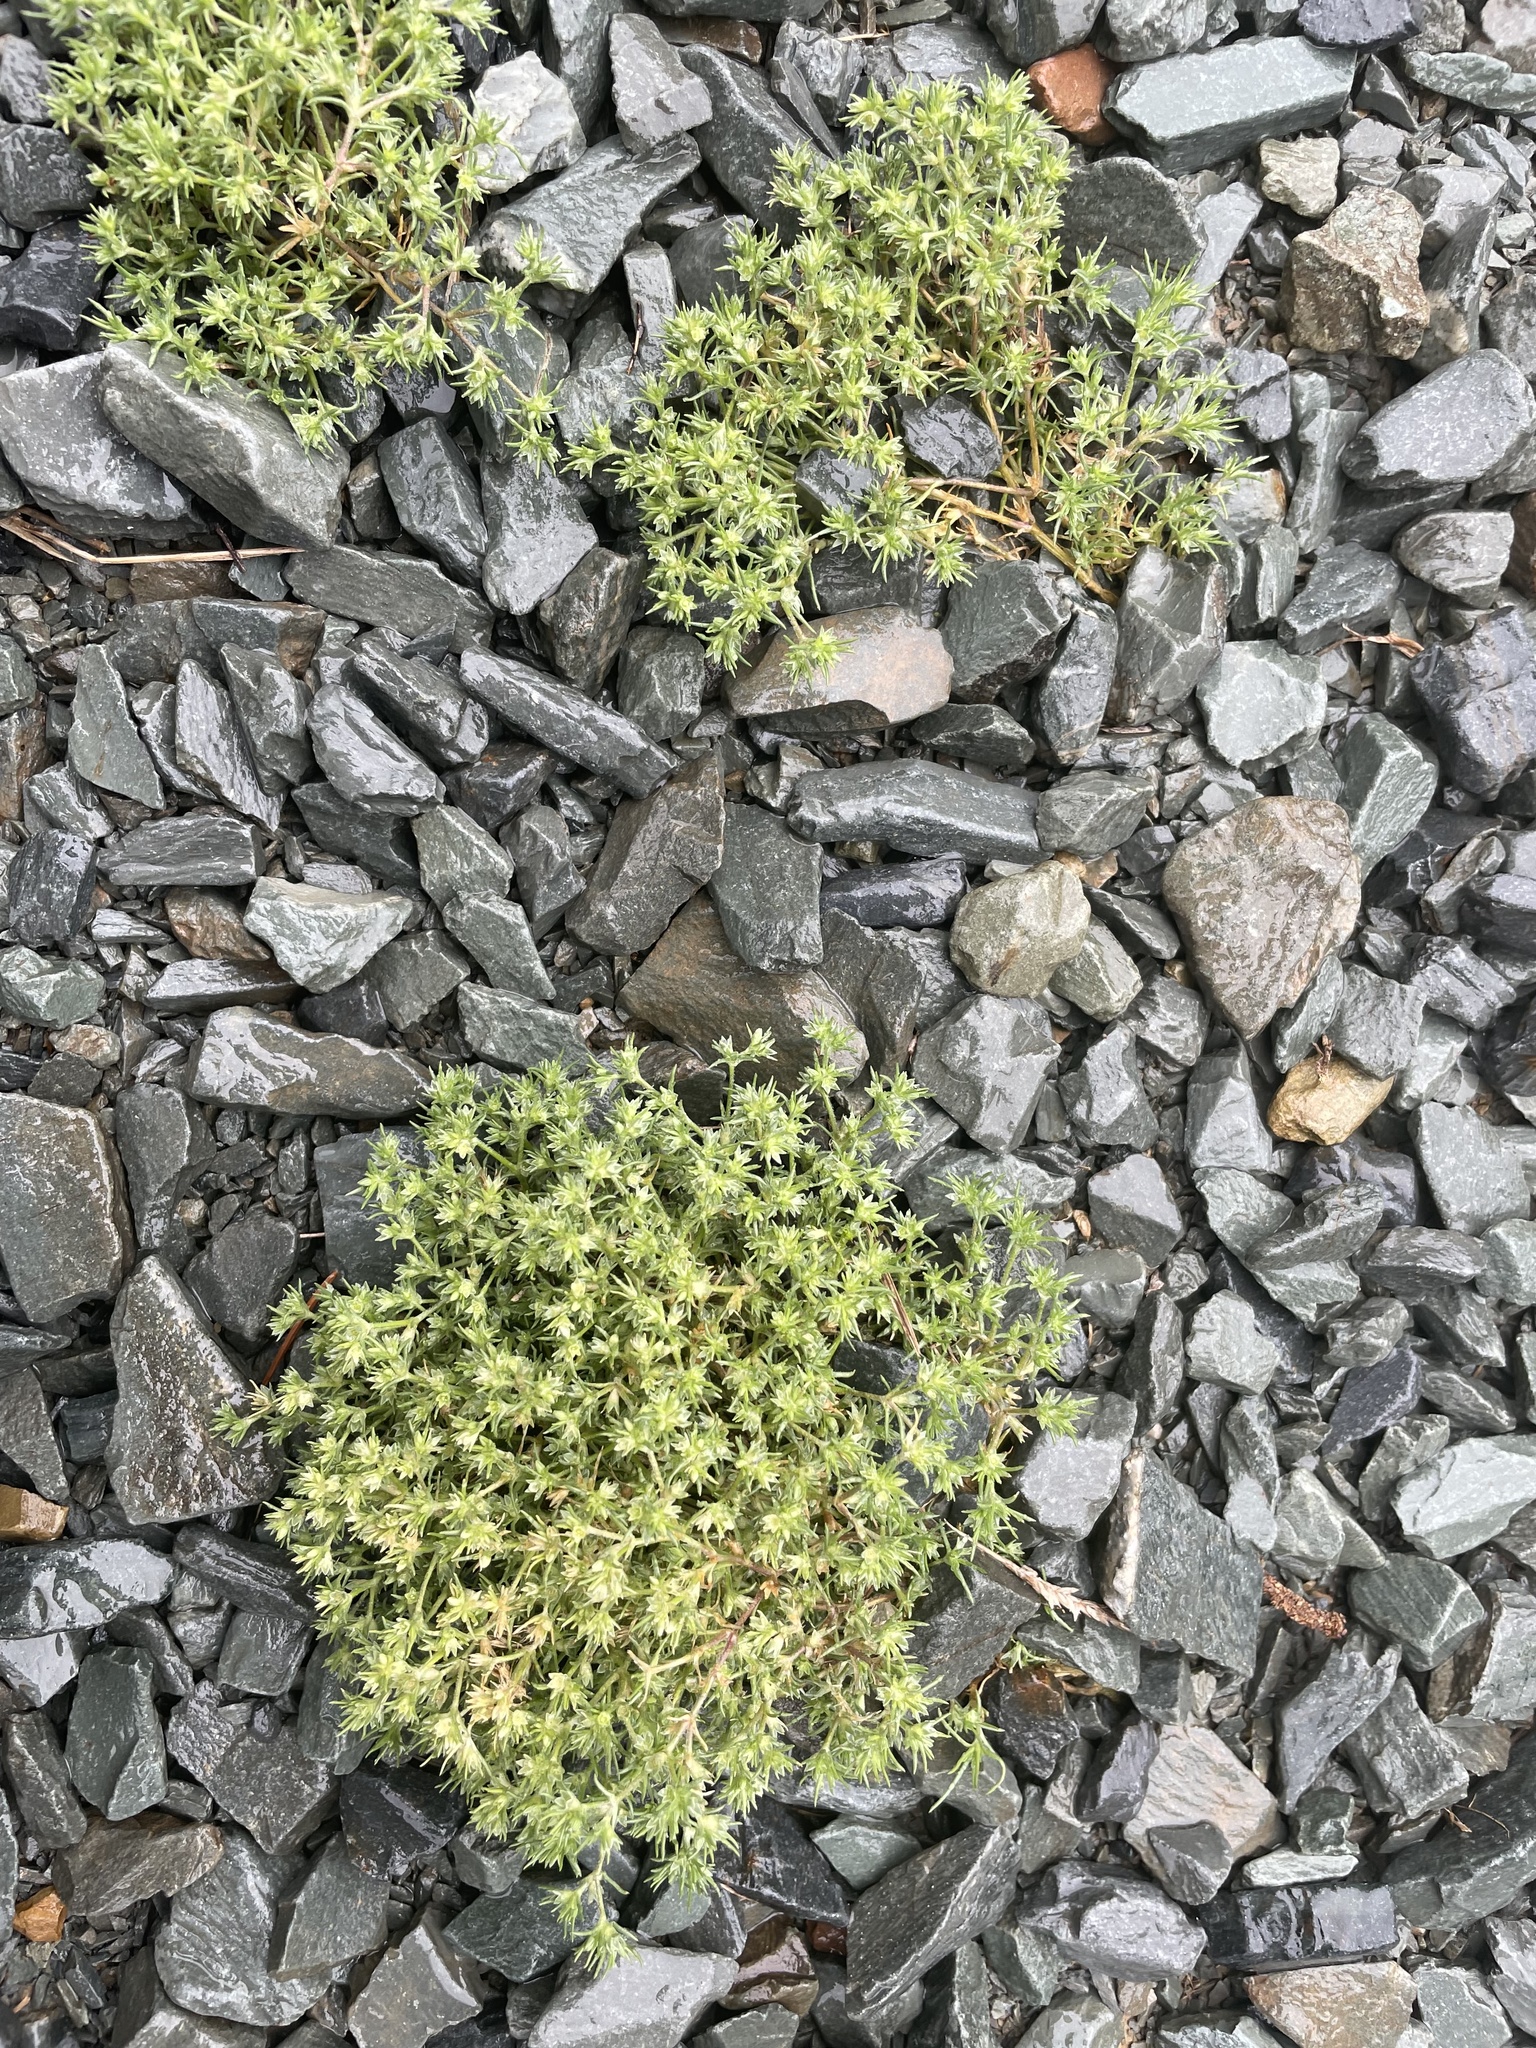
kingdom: Plantae
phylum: Tracheophyta
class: Magnoliopsida
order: Caryophyllales
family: Caryophyllaceae
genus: Scleranthus
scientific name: Scleranthus annuus
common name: Annual knawel
